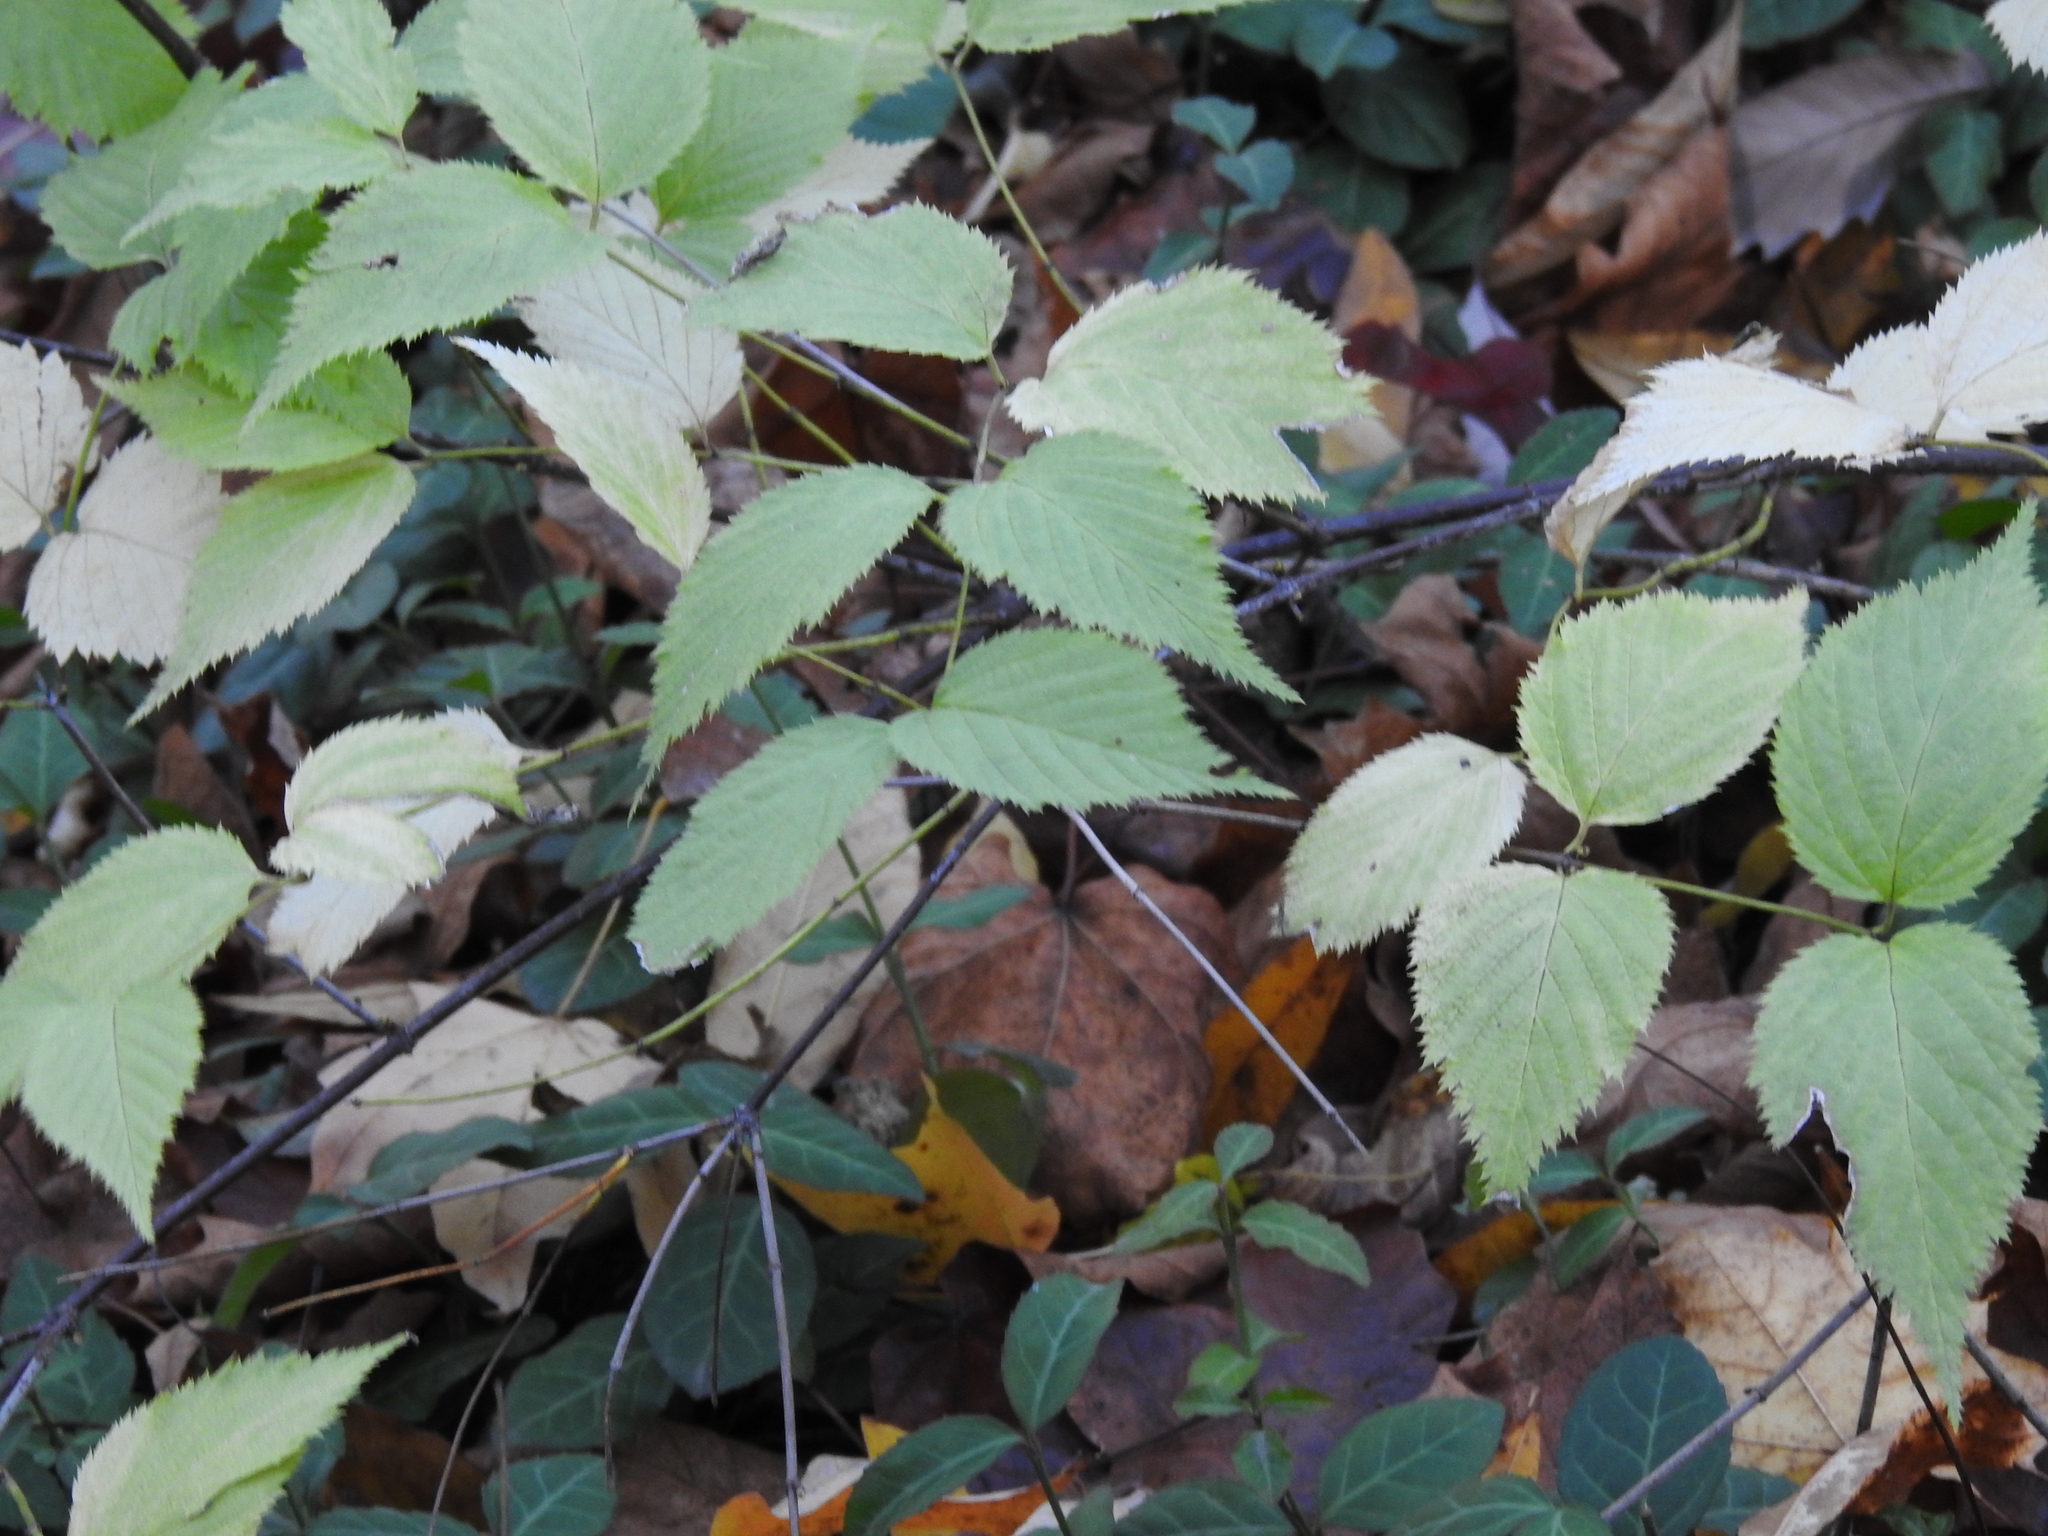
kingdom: Plantae
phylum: Tracheophyta
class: Magnoliopsida
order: Rosales
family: Rosaceae
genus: Rhodotypos
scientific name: Rhodotypos scandens
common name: Jetbead
